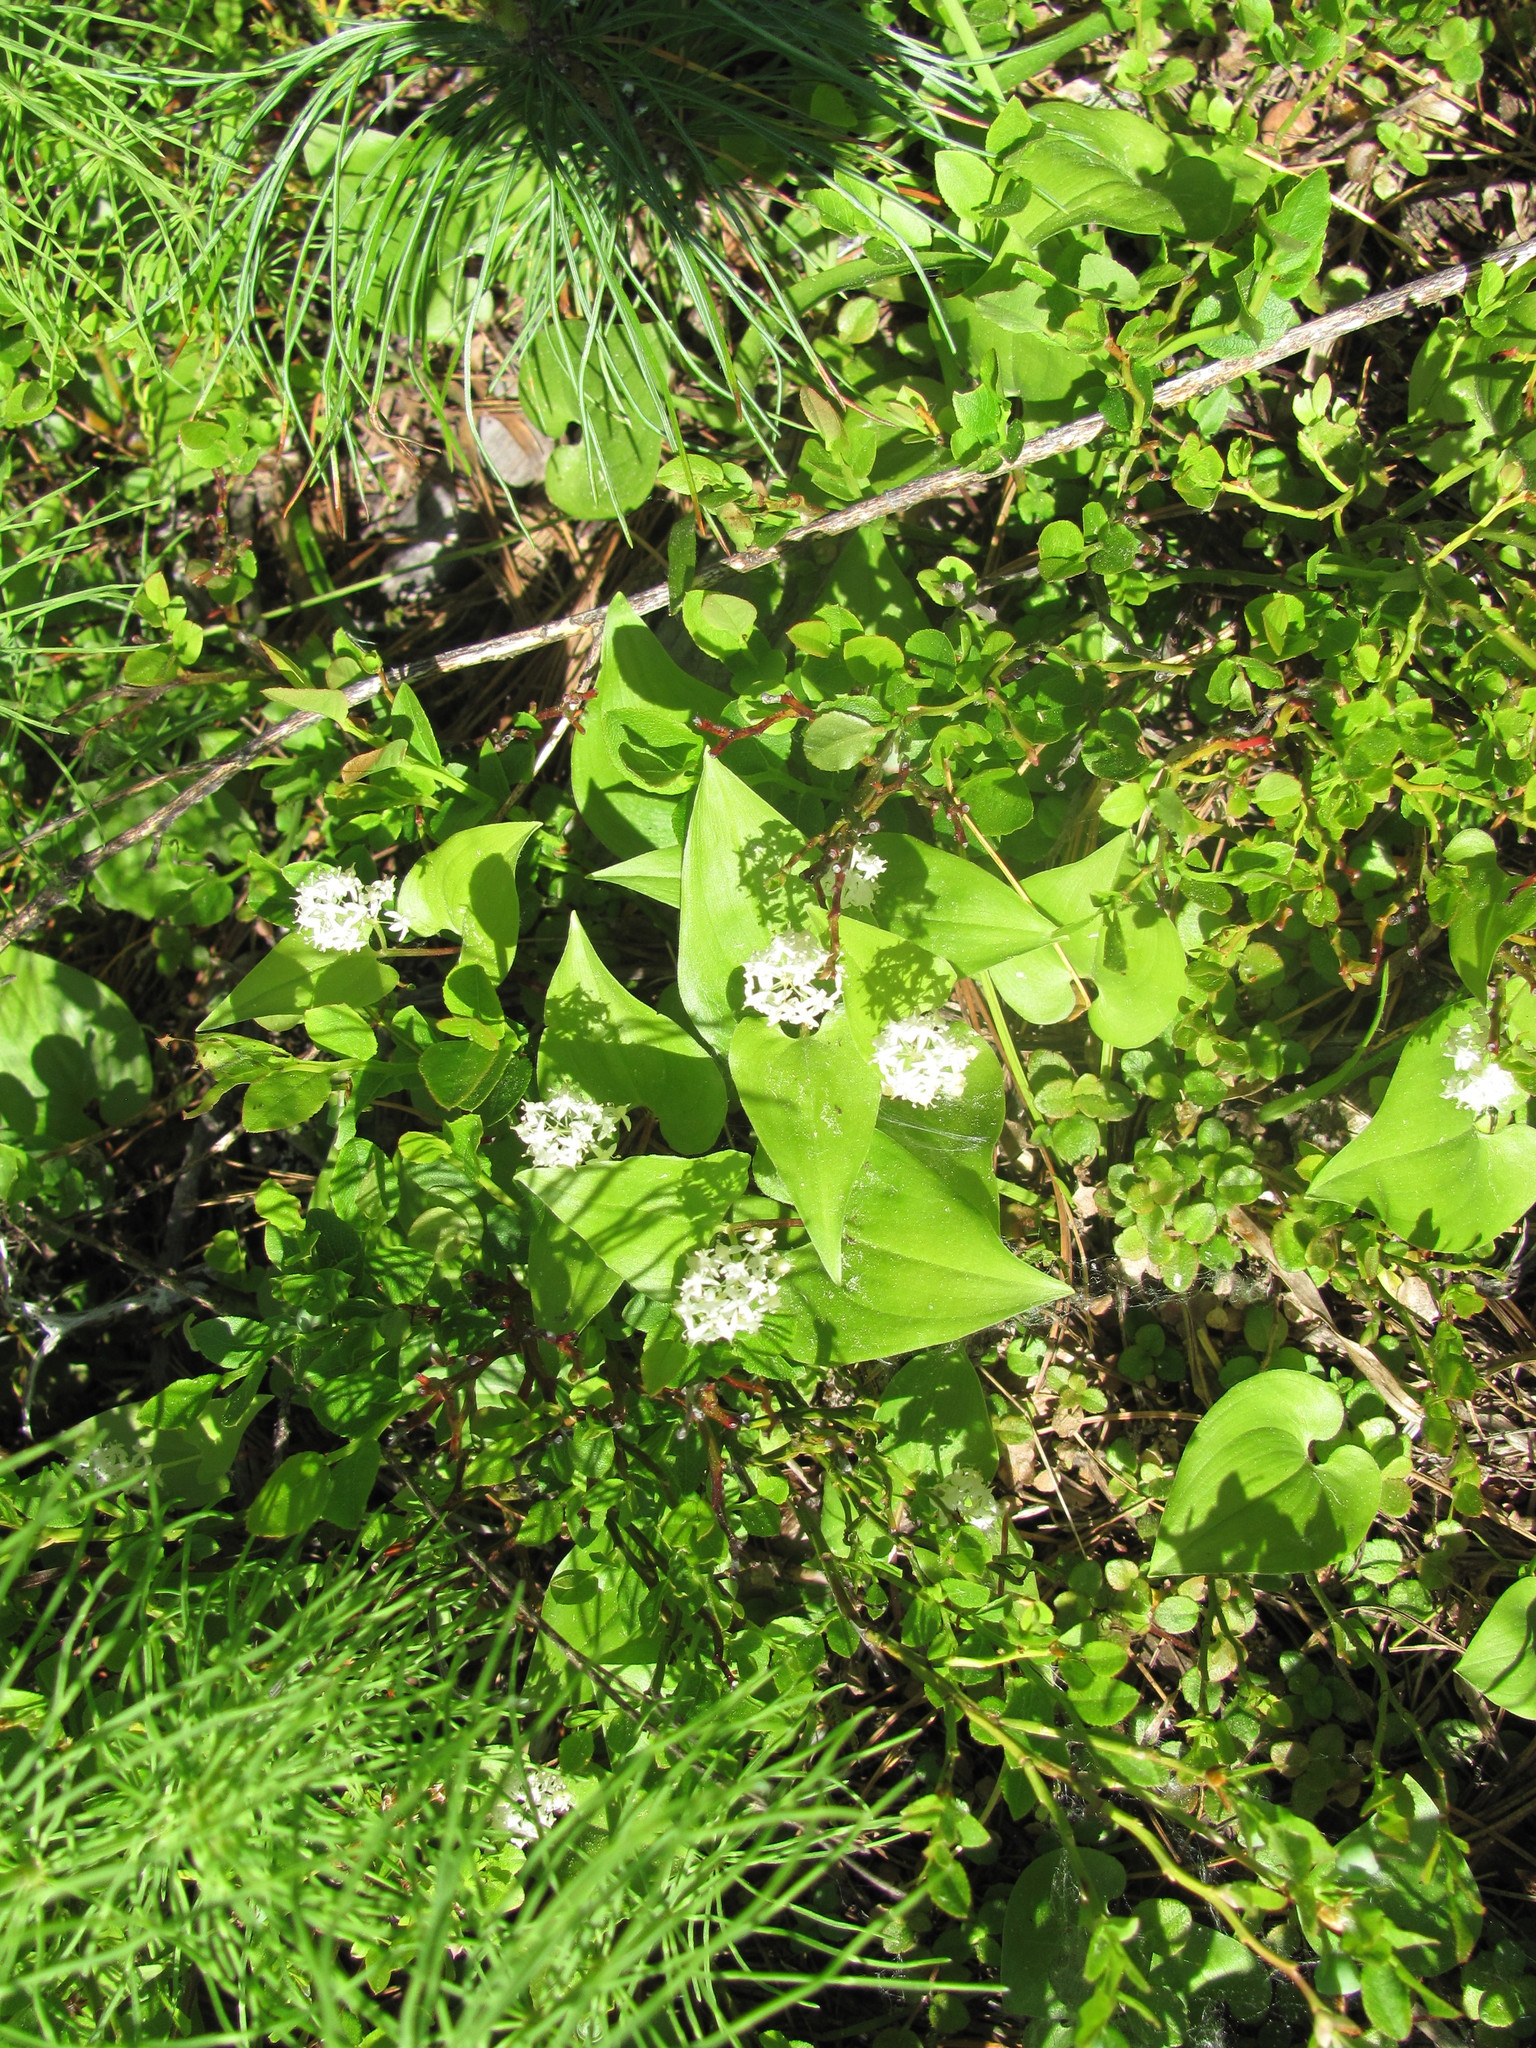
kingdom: Plantae
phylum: Tracheophyta
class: Liliopsida
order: Asparagales
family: Asparagaceae
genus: Maianthemum
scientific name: Maianthemum bifolium
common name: May lily
